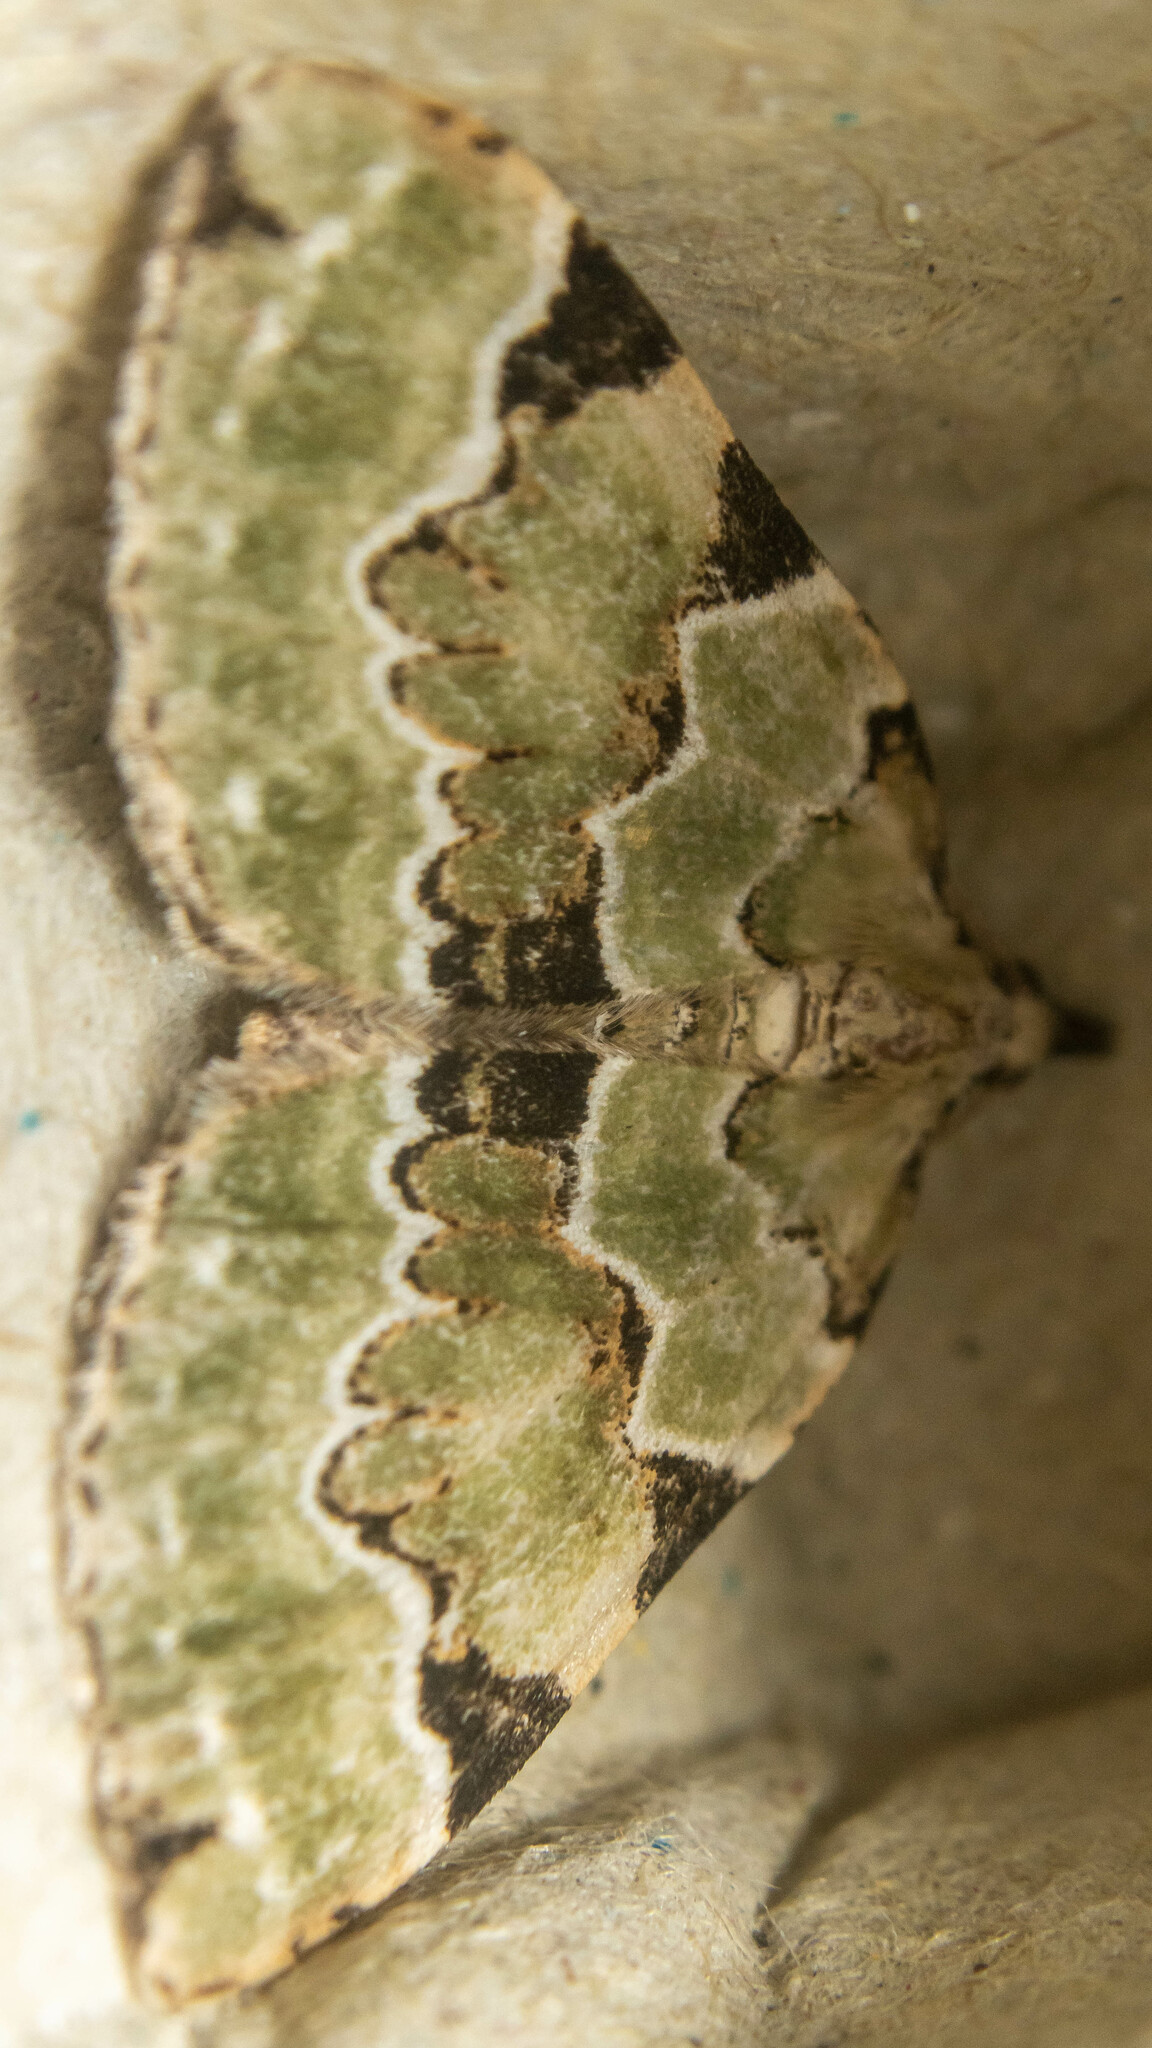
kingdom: Animalia
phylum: Arthropoda
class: Insecta
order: Lepidoptera
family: Geometridae
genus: Colostygia
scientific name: Colostygia pectinataria
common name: Green carpet
